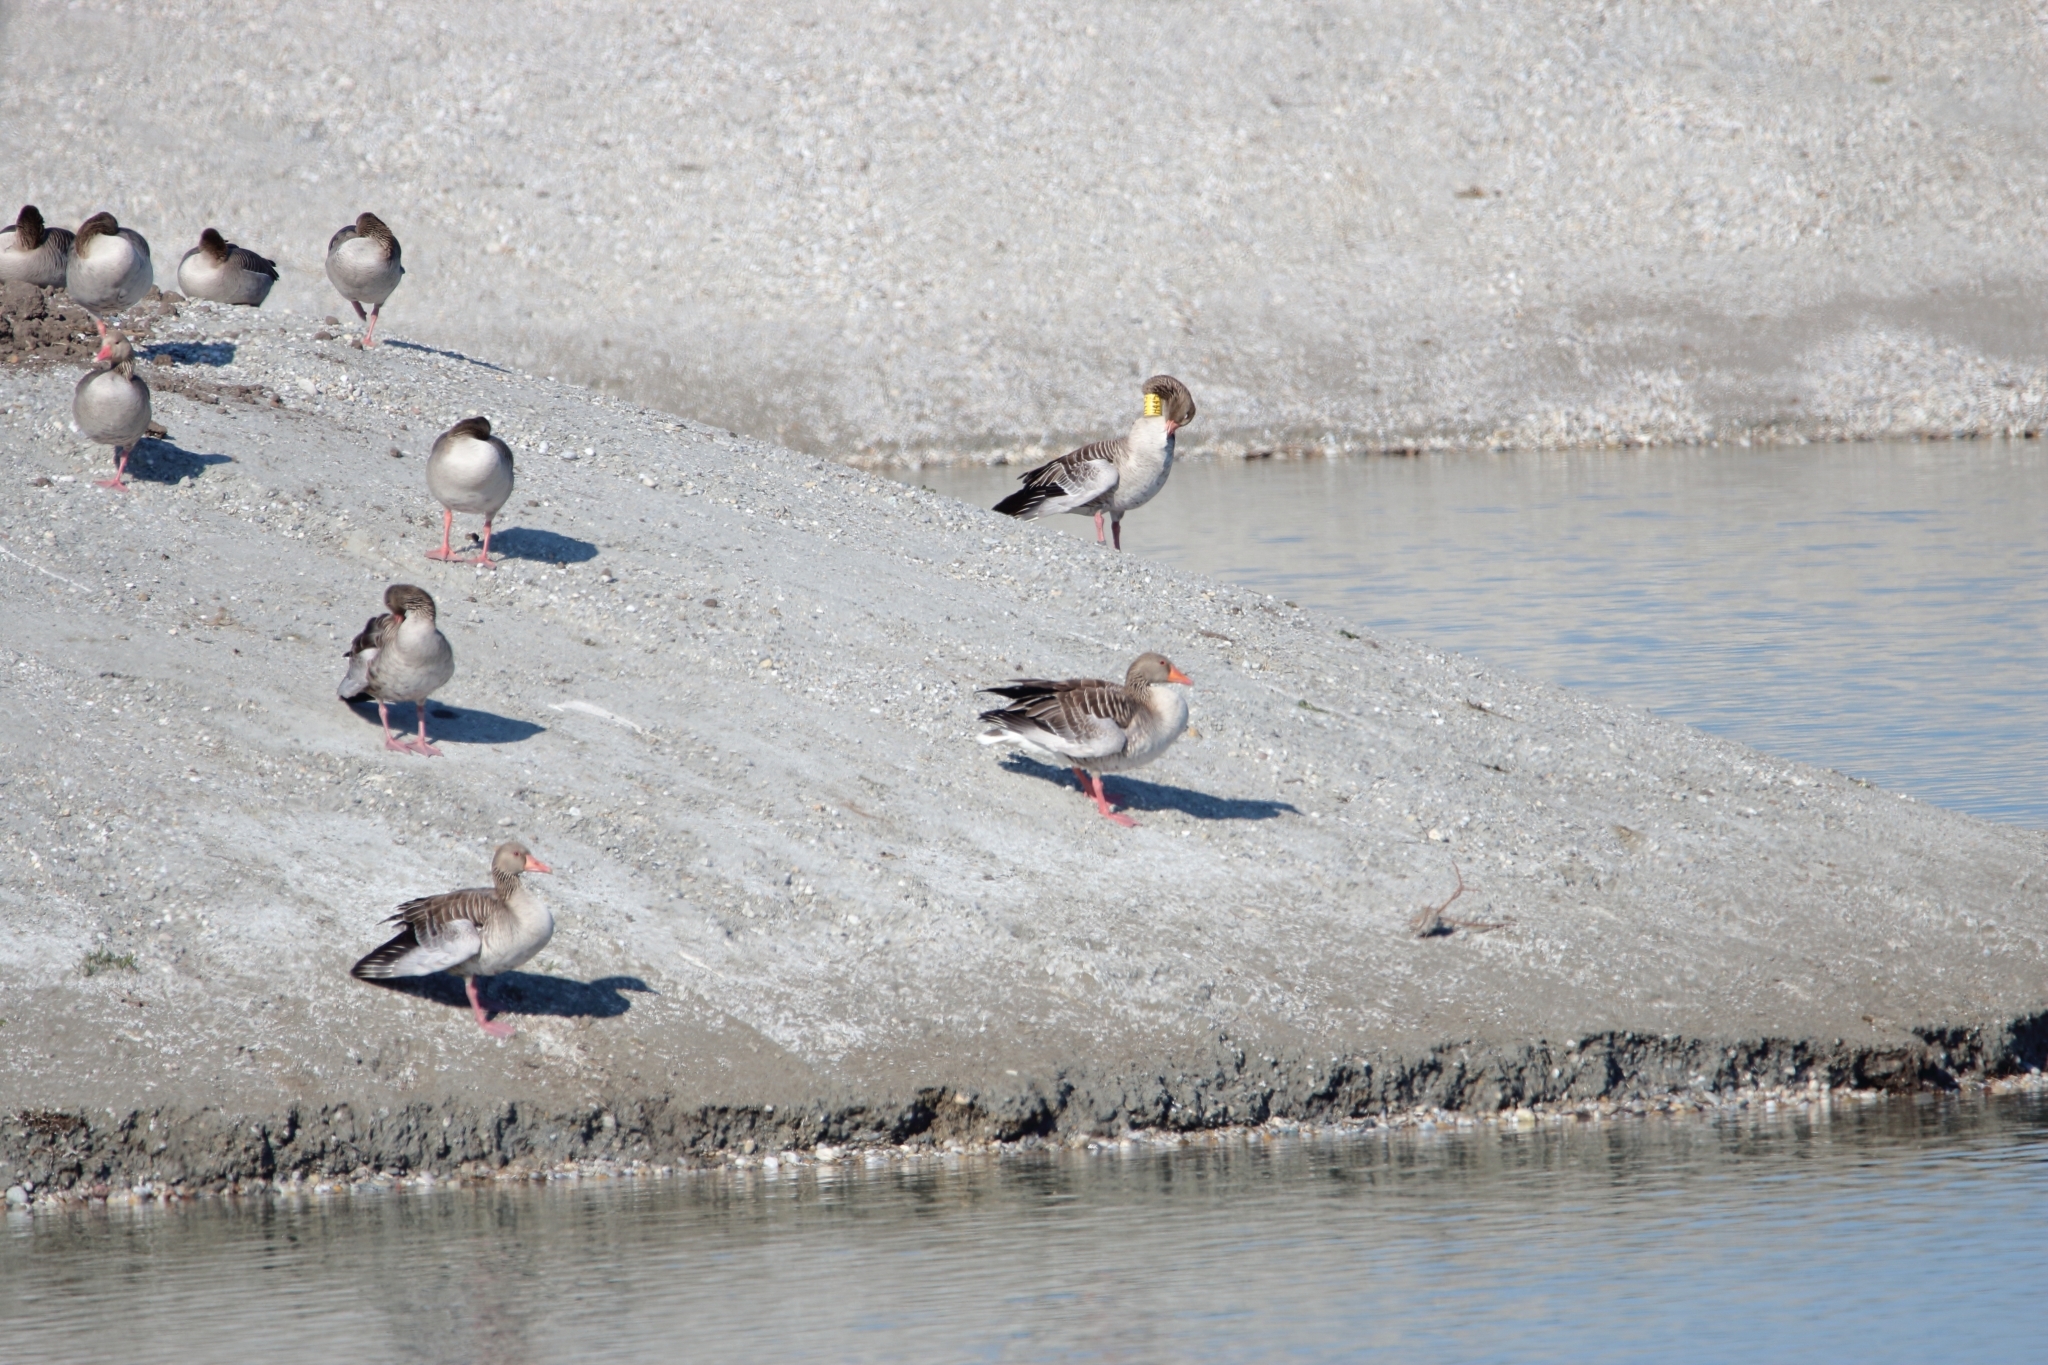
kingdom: Animalia
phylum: Chordata
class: Aves
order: Anseriformes
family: Anatidae
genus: Anser
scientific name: Anser anser
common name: Greylag goose
